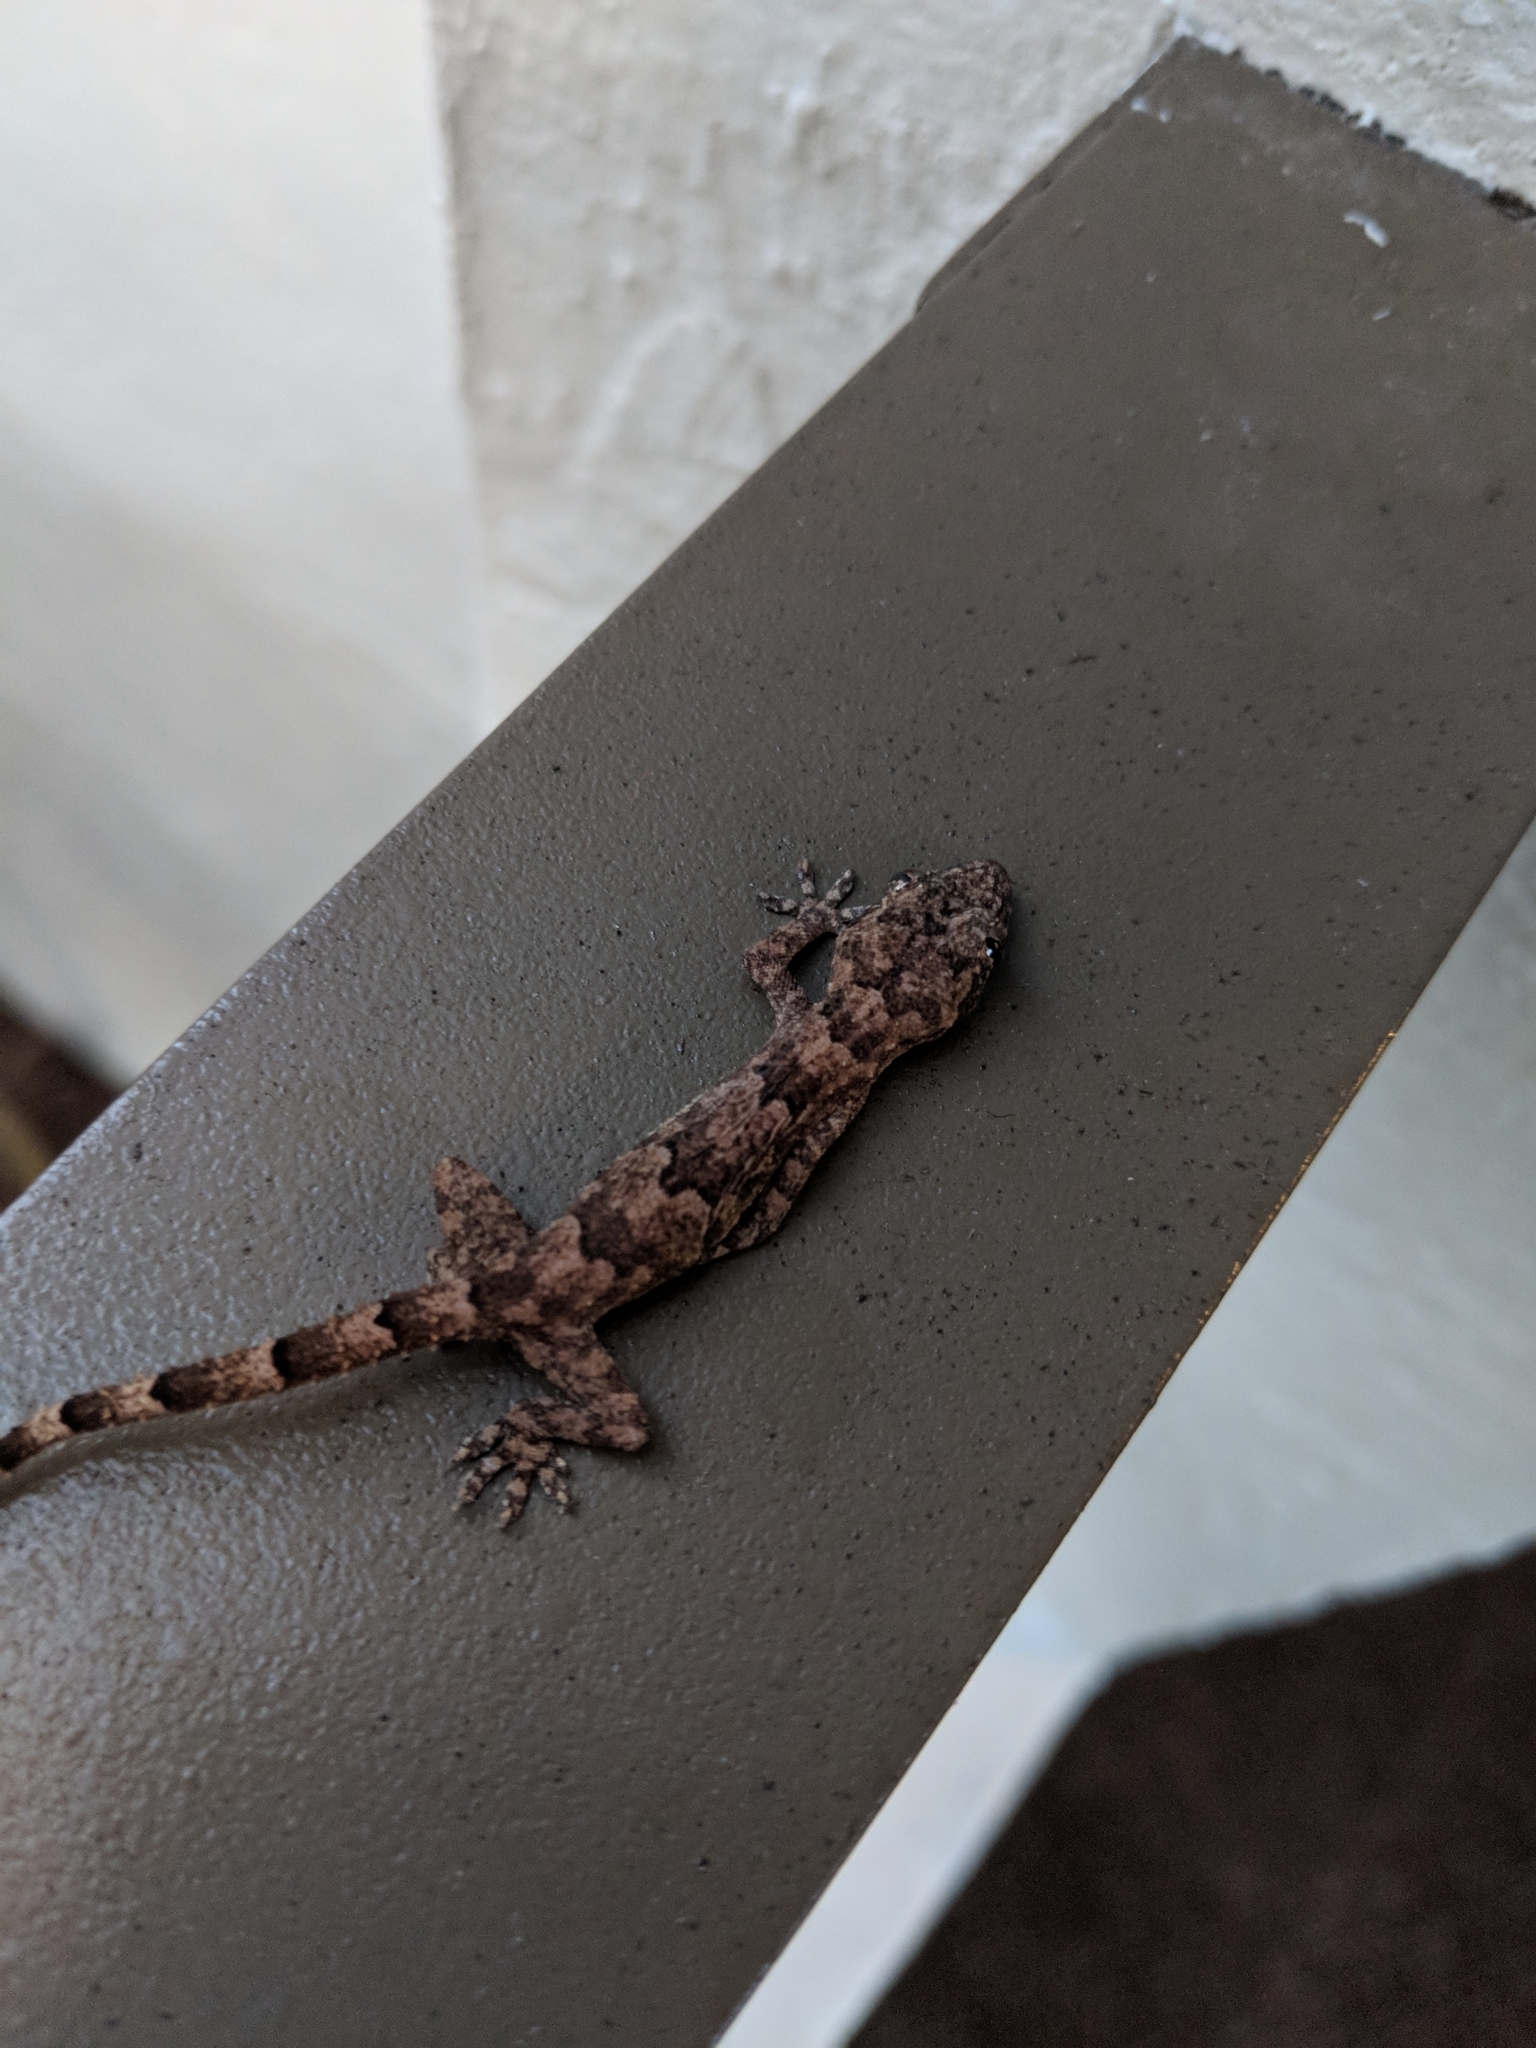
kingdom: Animalia
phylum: Chordata
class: Squamata
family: Gekkonidae
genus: Hemidactylus
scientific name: Hemidactylus mabouia
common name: House gecko
